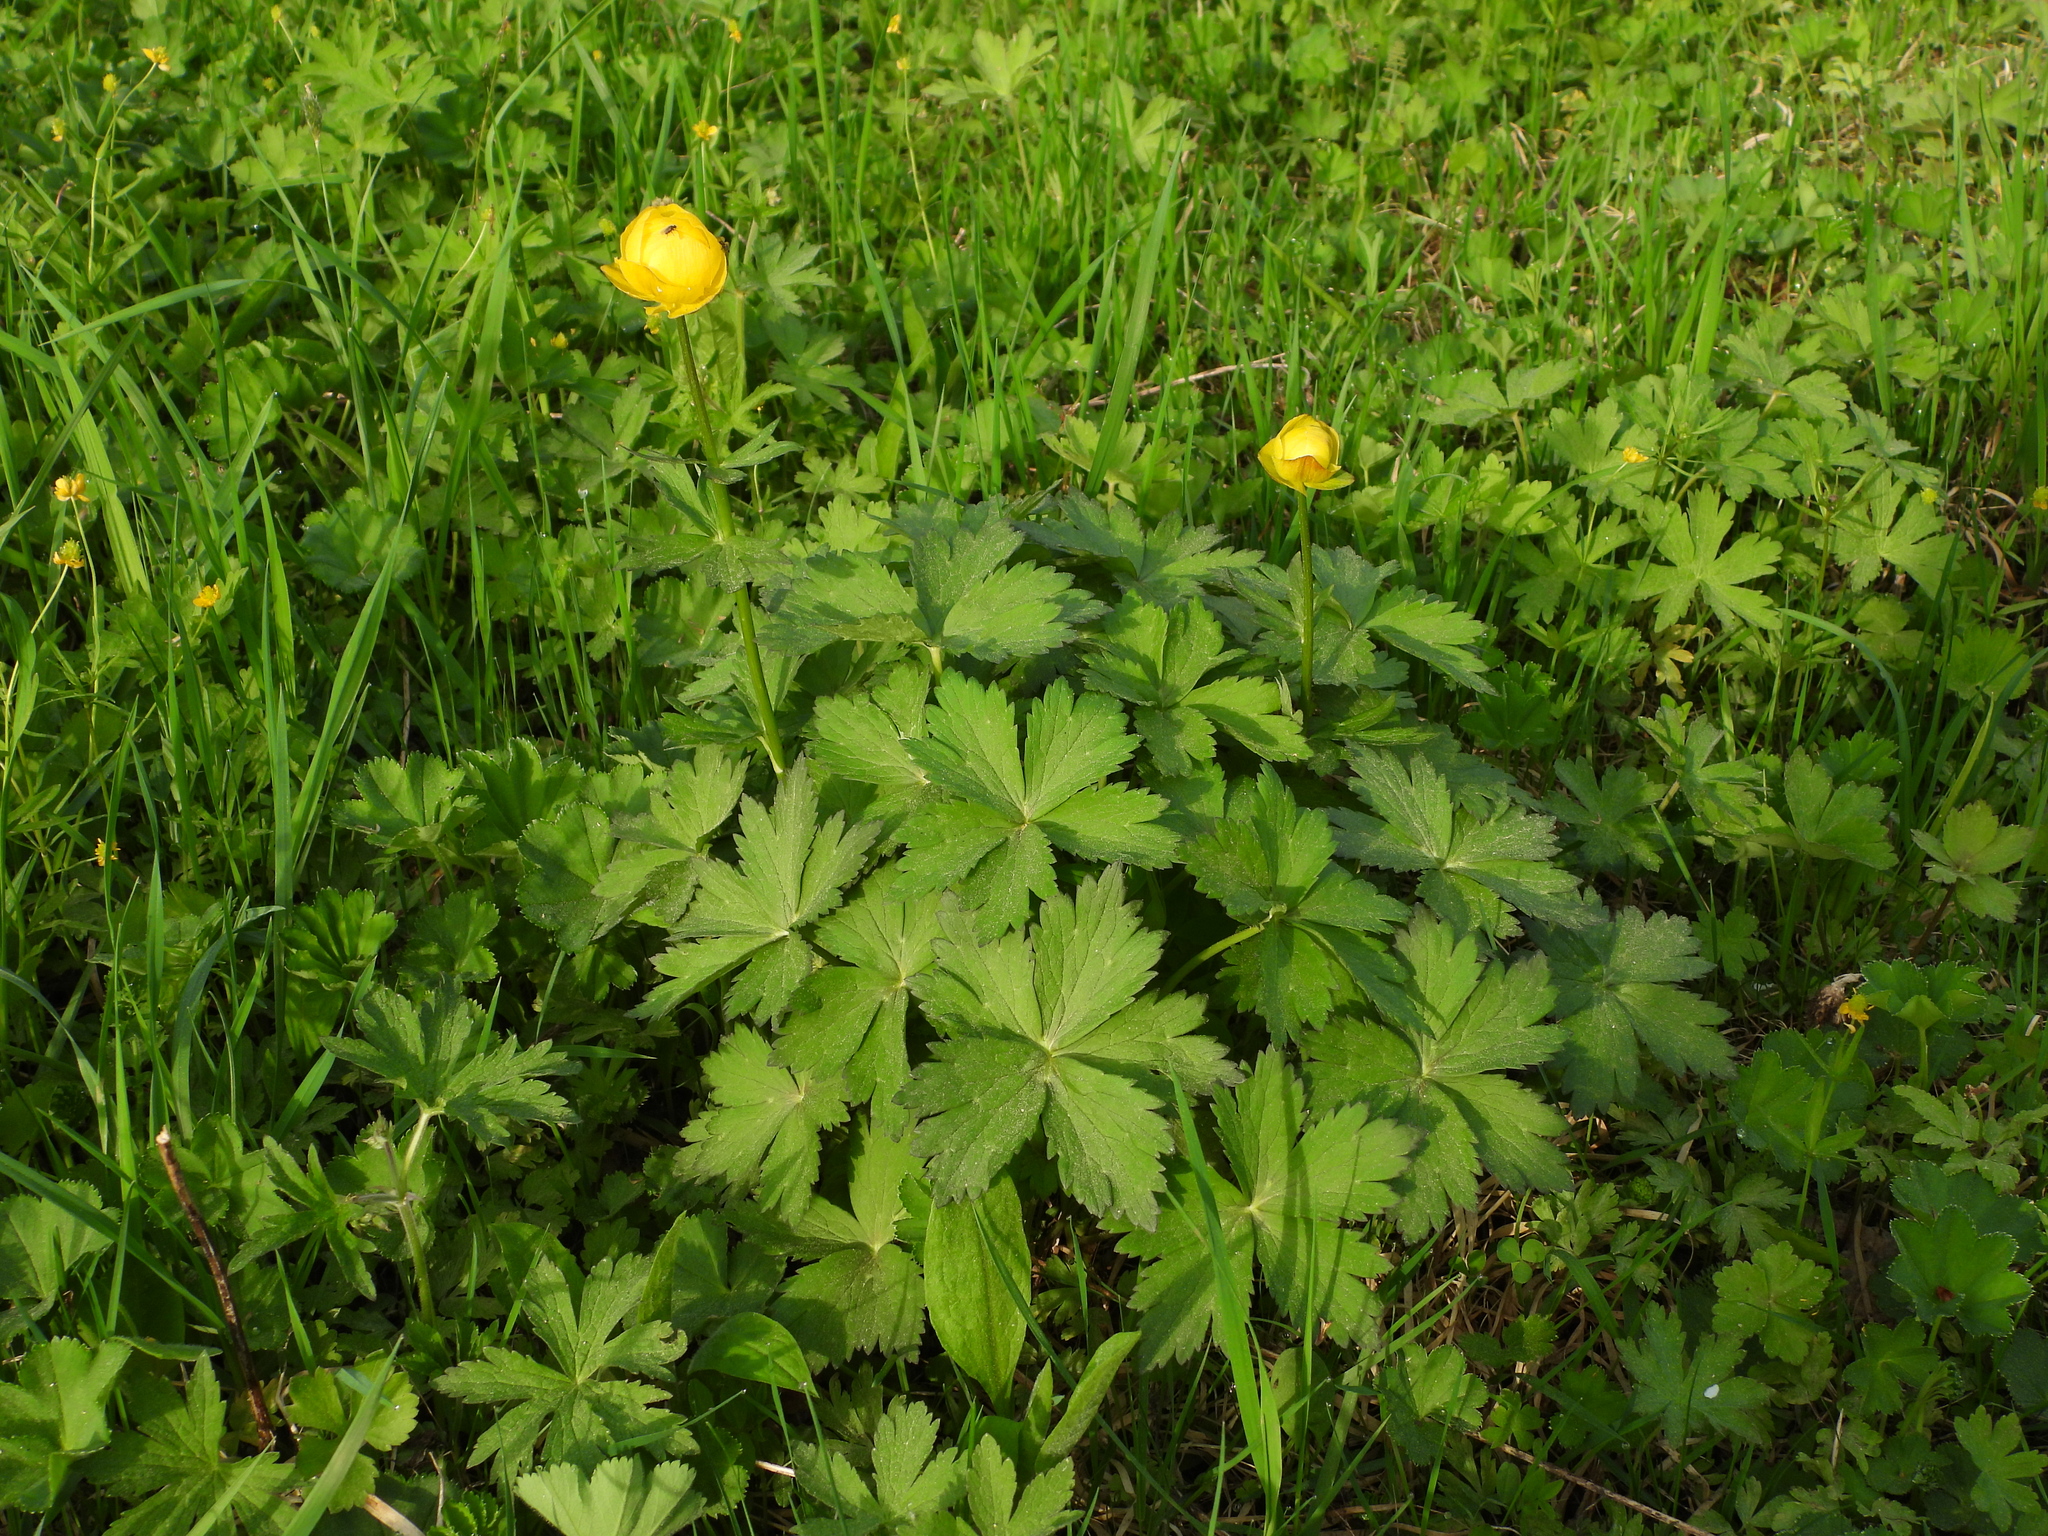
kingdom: Plantae
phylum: Tracheophyta
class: Magnoliopsida
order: Ranunculales
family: Ranunculaceae
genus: Trollius
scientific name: Trollius europaeus
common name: European globeflower
